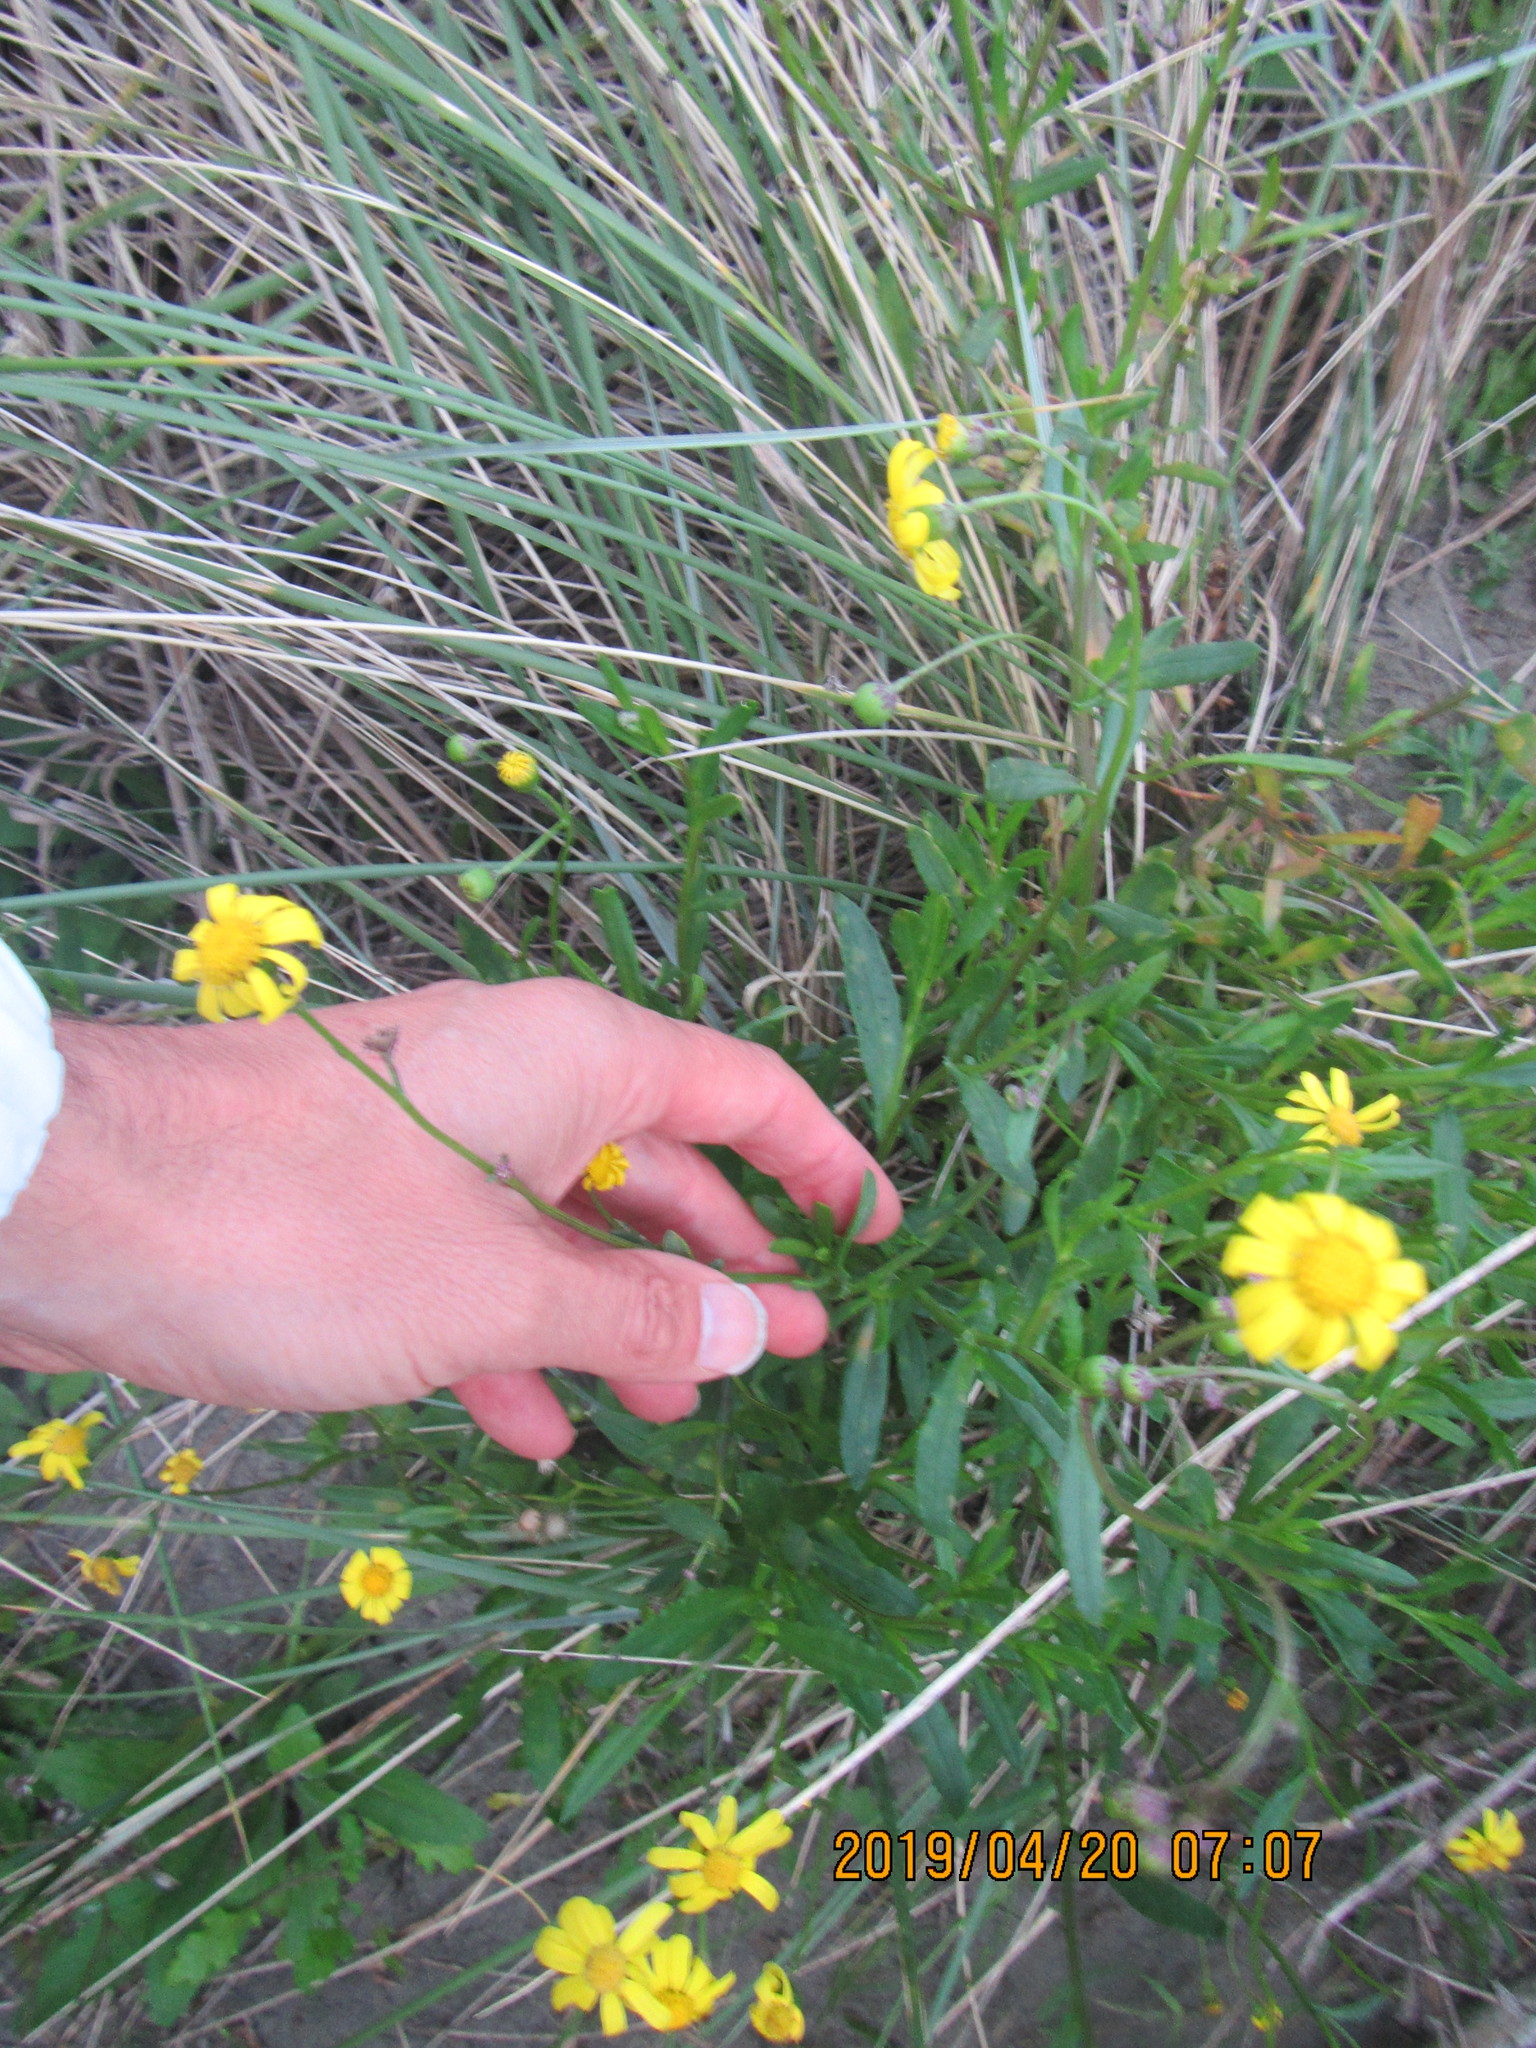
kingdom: Plantae
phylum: Tracheophyta
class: Magnoliopsida
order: Asterales
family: Asteraceae
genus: Senecio
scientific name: Senecio skirrhodon
